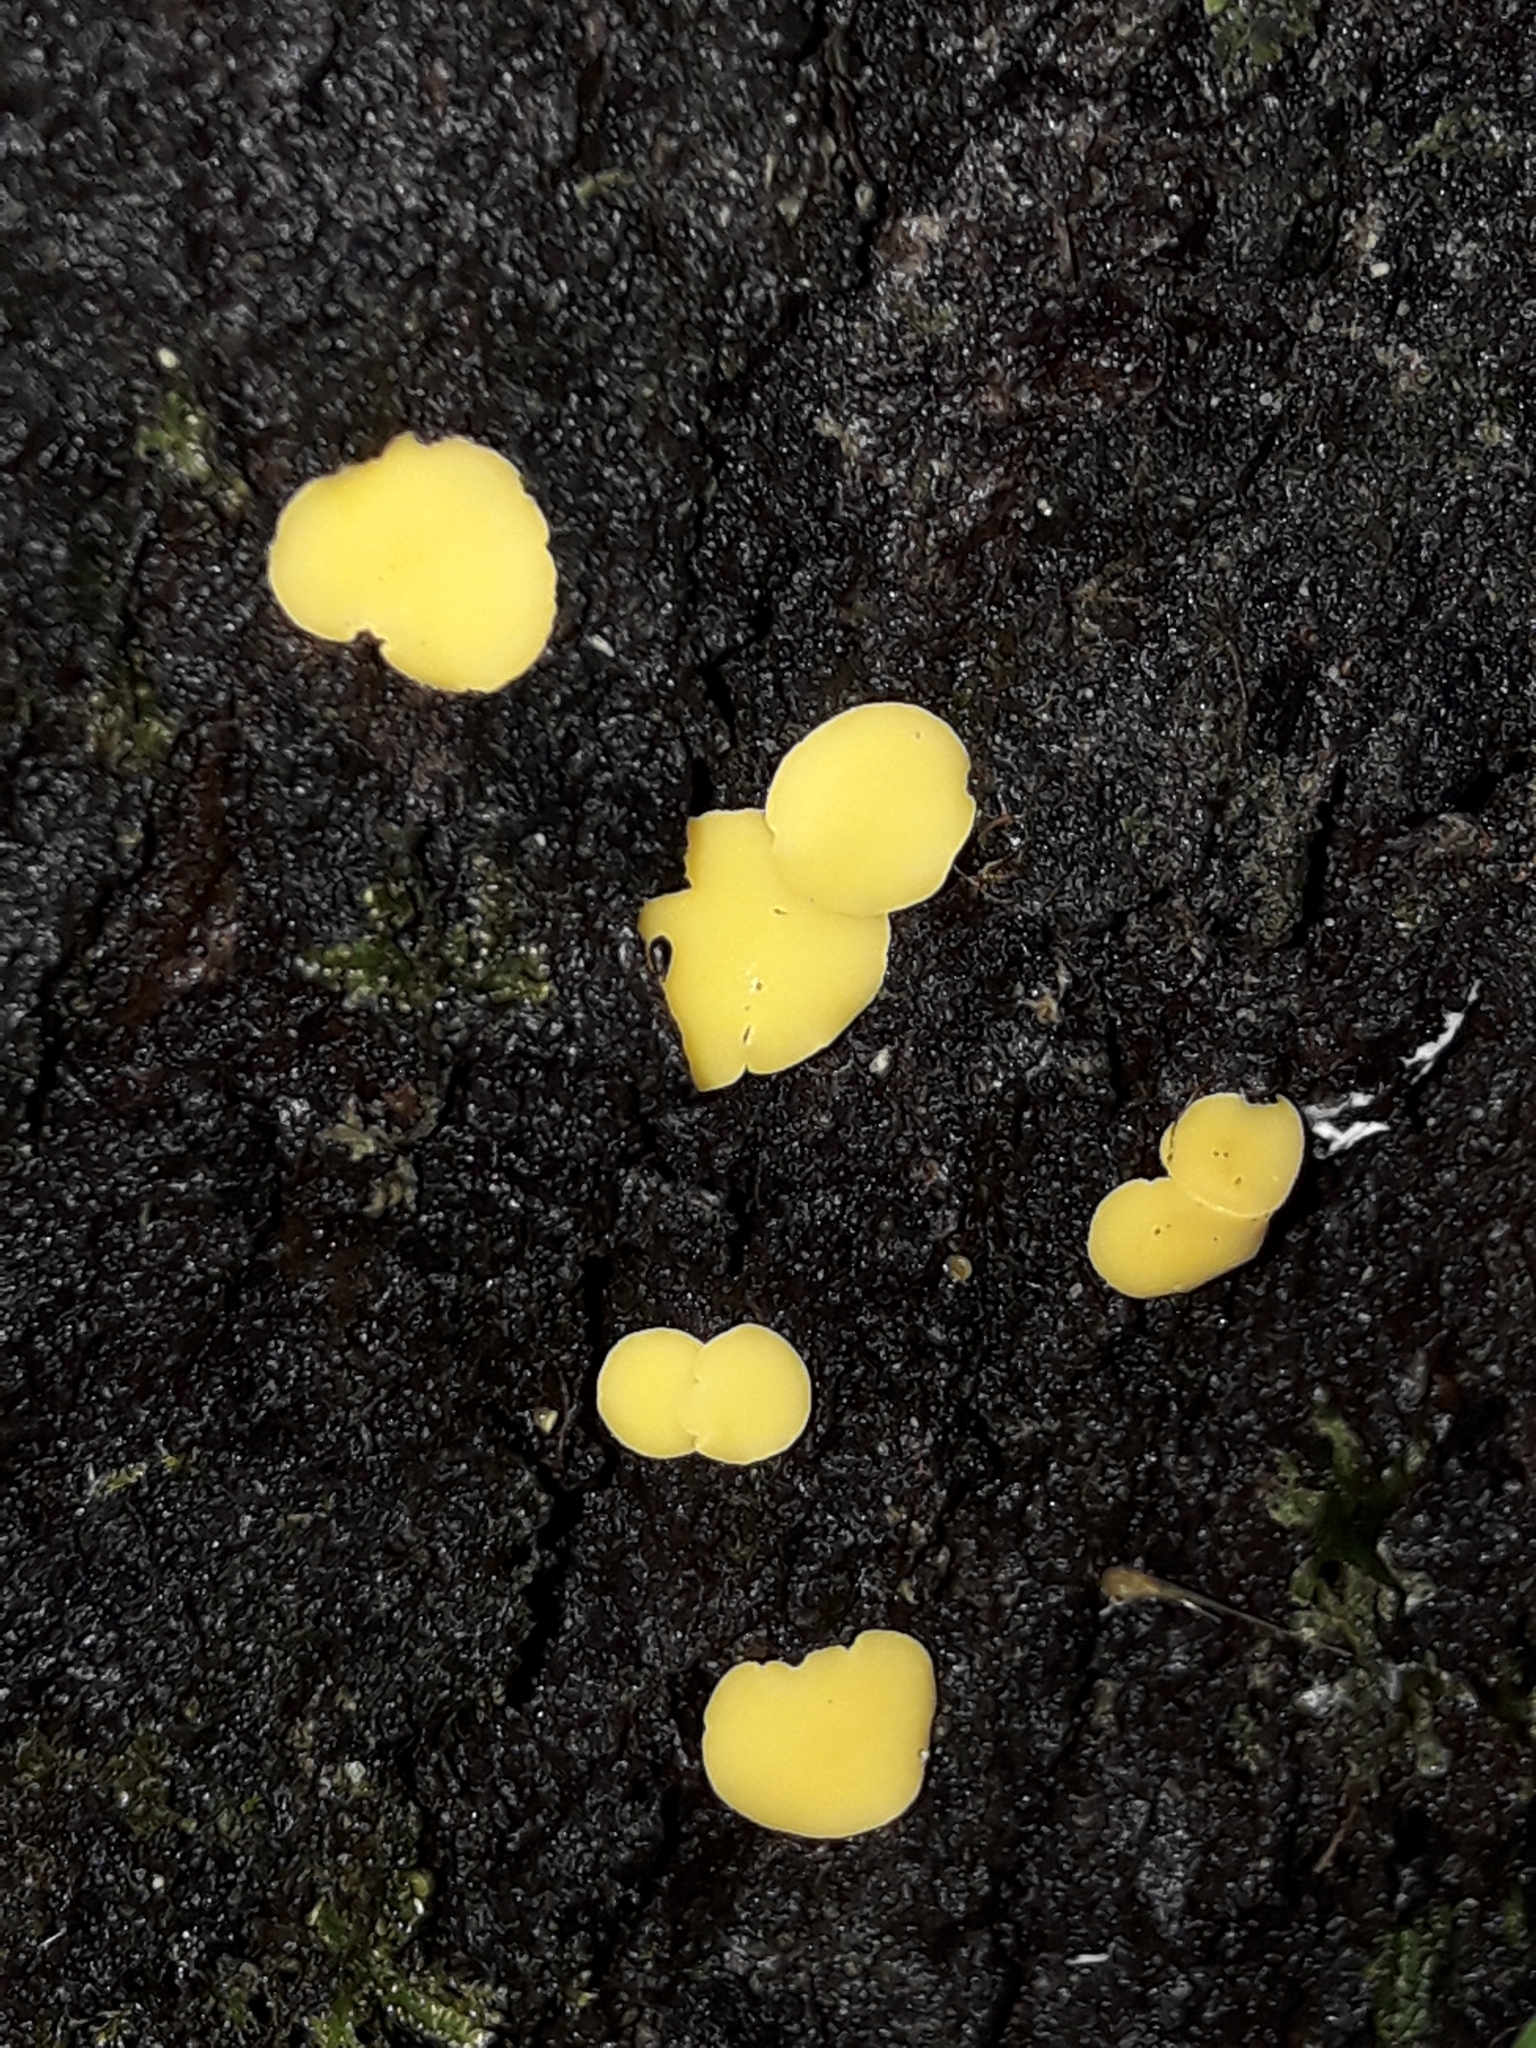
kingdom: Fungi
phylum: Ascomycota
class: Leotiomycetes
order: Helotiales
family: Pezizellaceae
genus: Calycina
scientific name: Calycina citrina
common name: Yellow fairy cups
